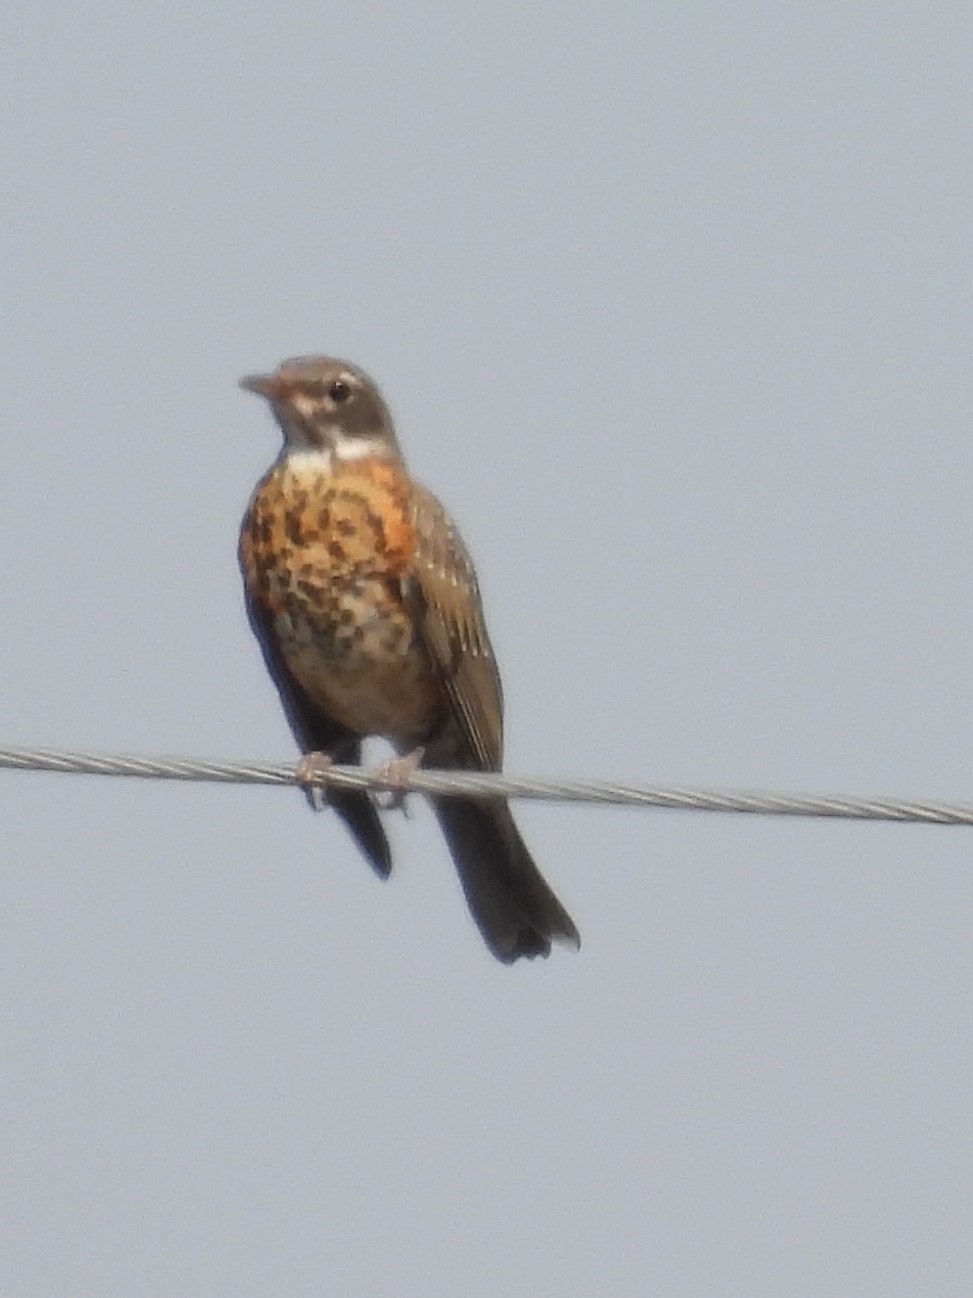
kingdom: Animalia
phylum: Chordata
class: Aves
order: Passeriformes
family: Turdidae
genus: Turdus
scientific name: Turdus migratorius
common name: American robin
